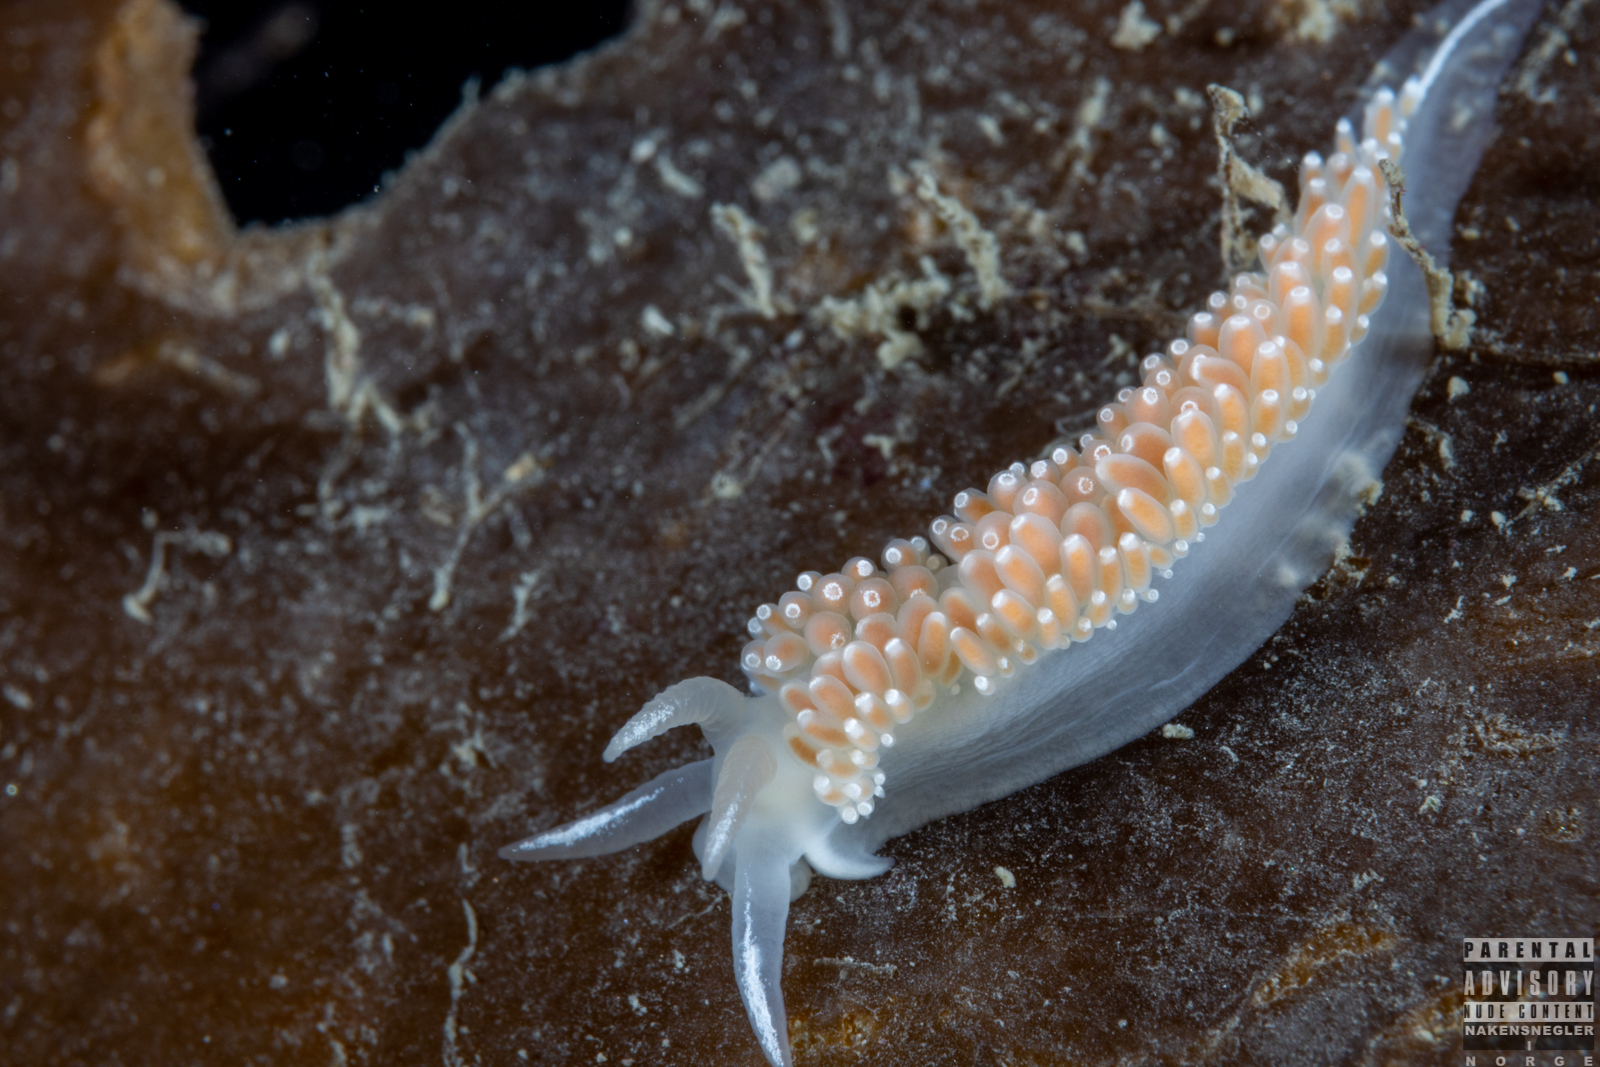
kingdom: Animalia
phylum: Mollusca
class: Gastropoda
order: Nudibranchia
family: Coryphellidae
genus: Coryphella
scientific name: Coryphella verrucosa
